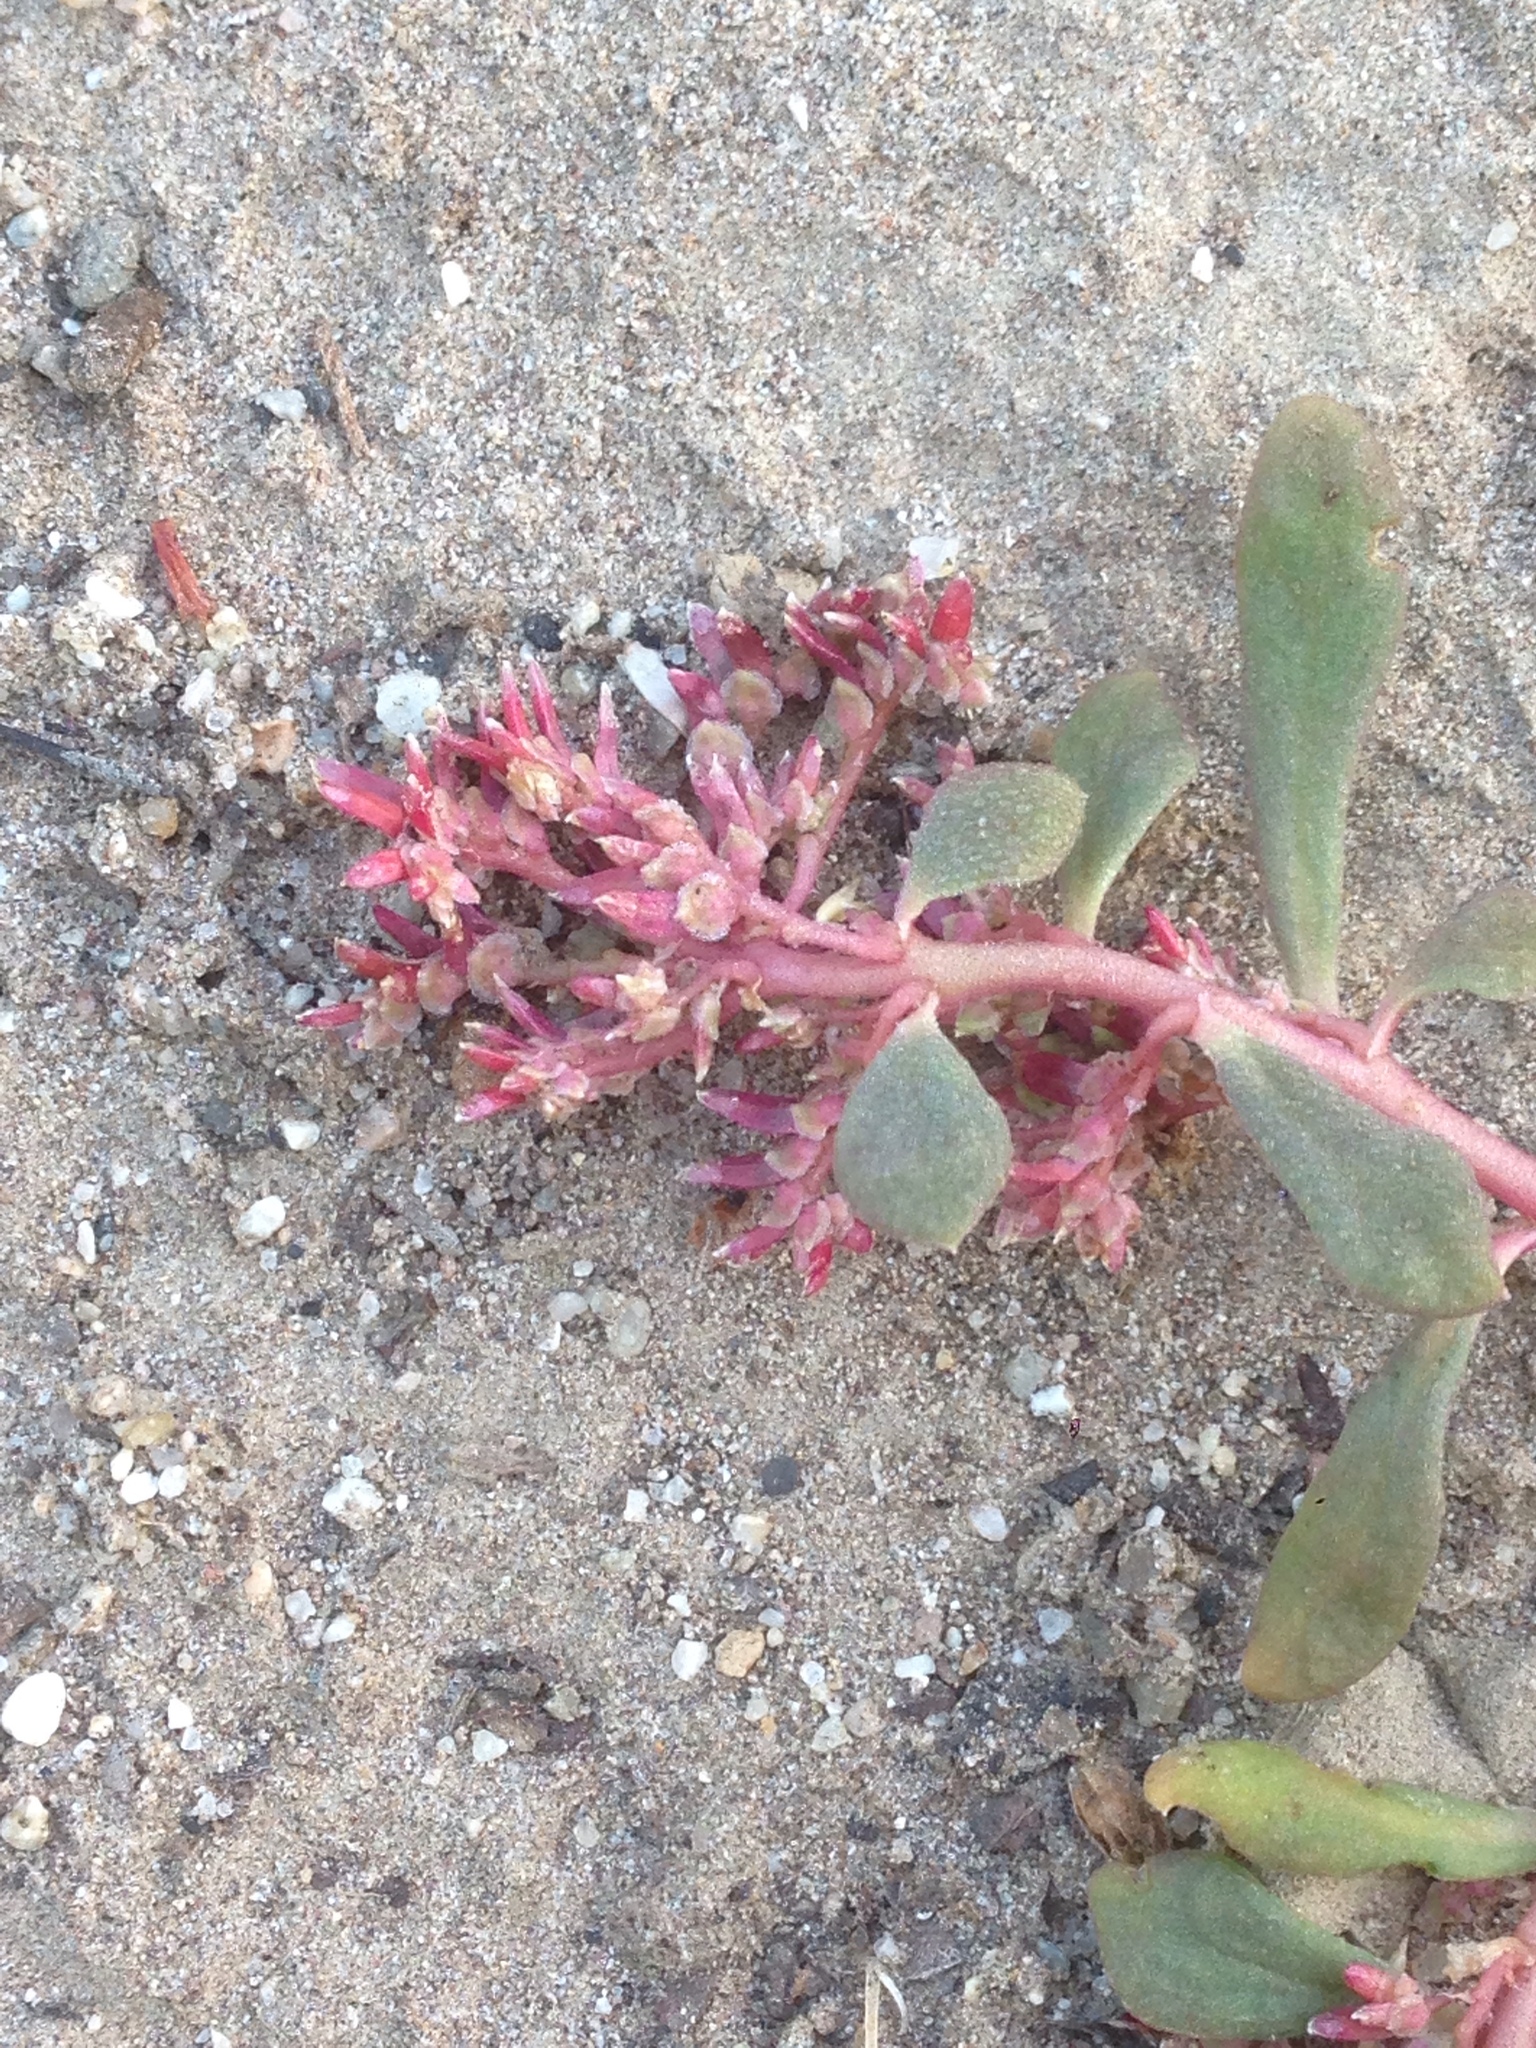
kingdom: Plantae
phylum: Tracheophyta
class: Magnoliopsida
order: Caryophyllales
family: Montiaceae
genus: Calyptridium
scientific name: Calyptridium monandrum
